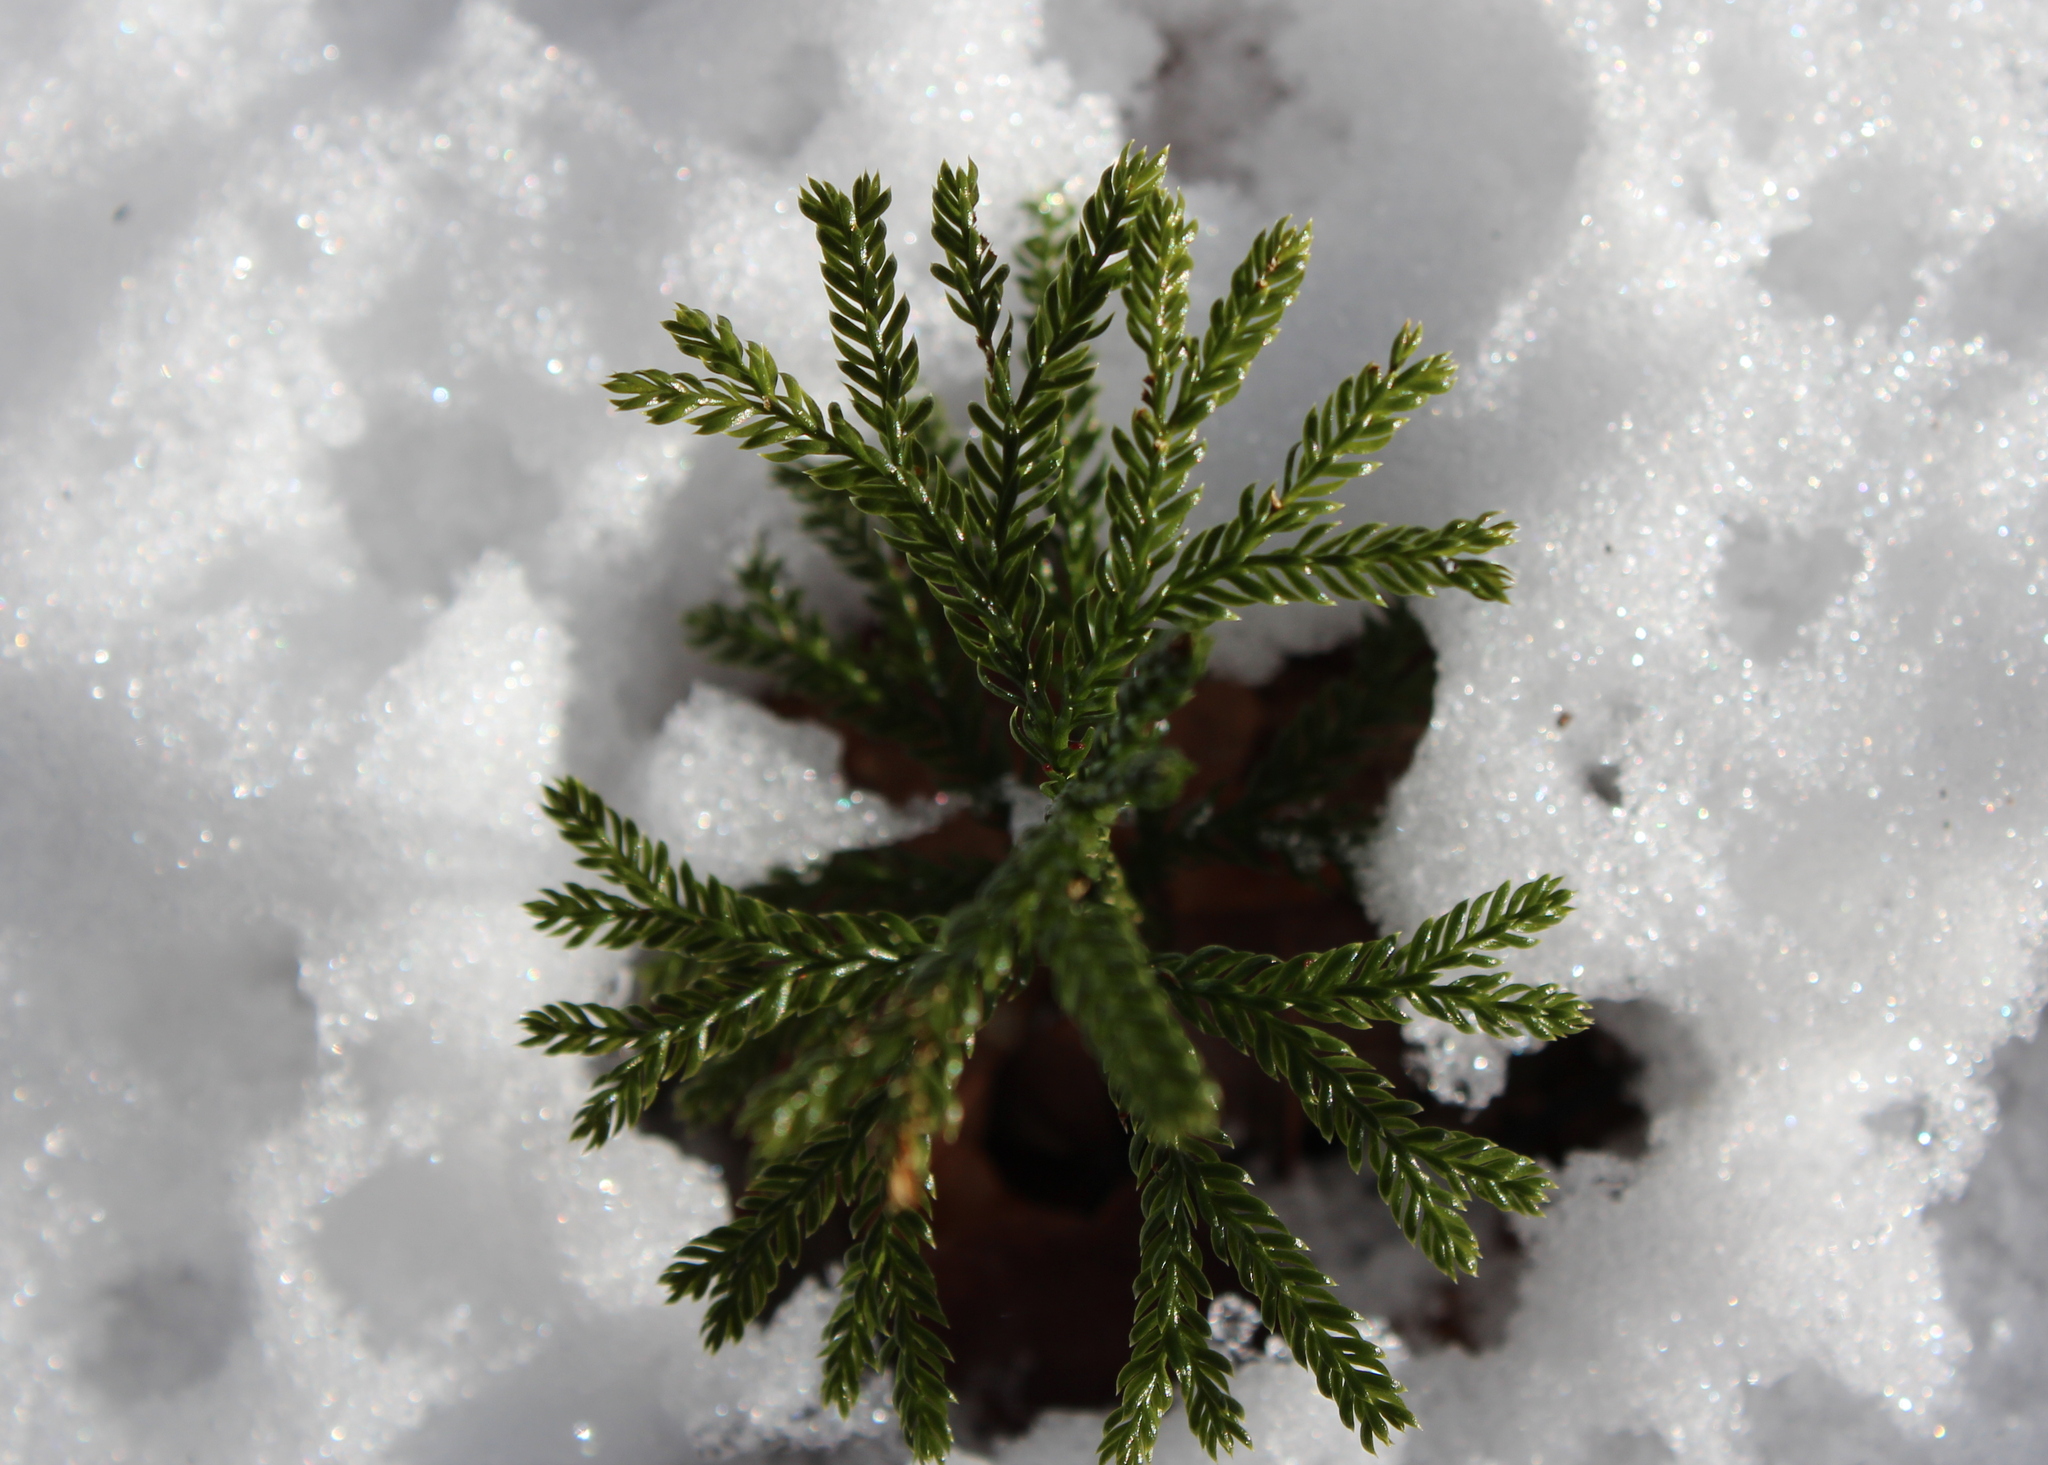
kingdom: Plantae
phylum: Tracheophyta
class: Lycopodiopsida
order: Lycopodiales
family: Lycopodiaceae
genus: Dendrolycopodium
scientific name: Dendrolycopodium obscurum
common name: Common ground-pine
